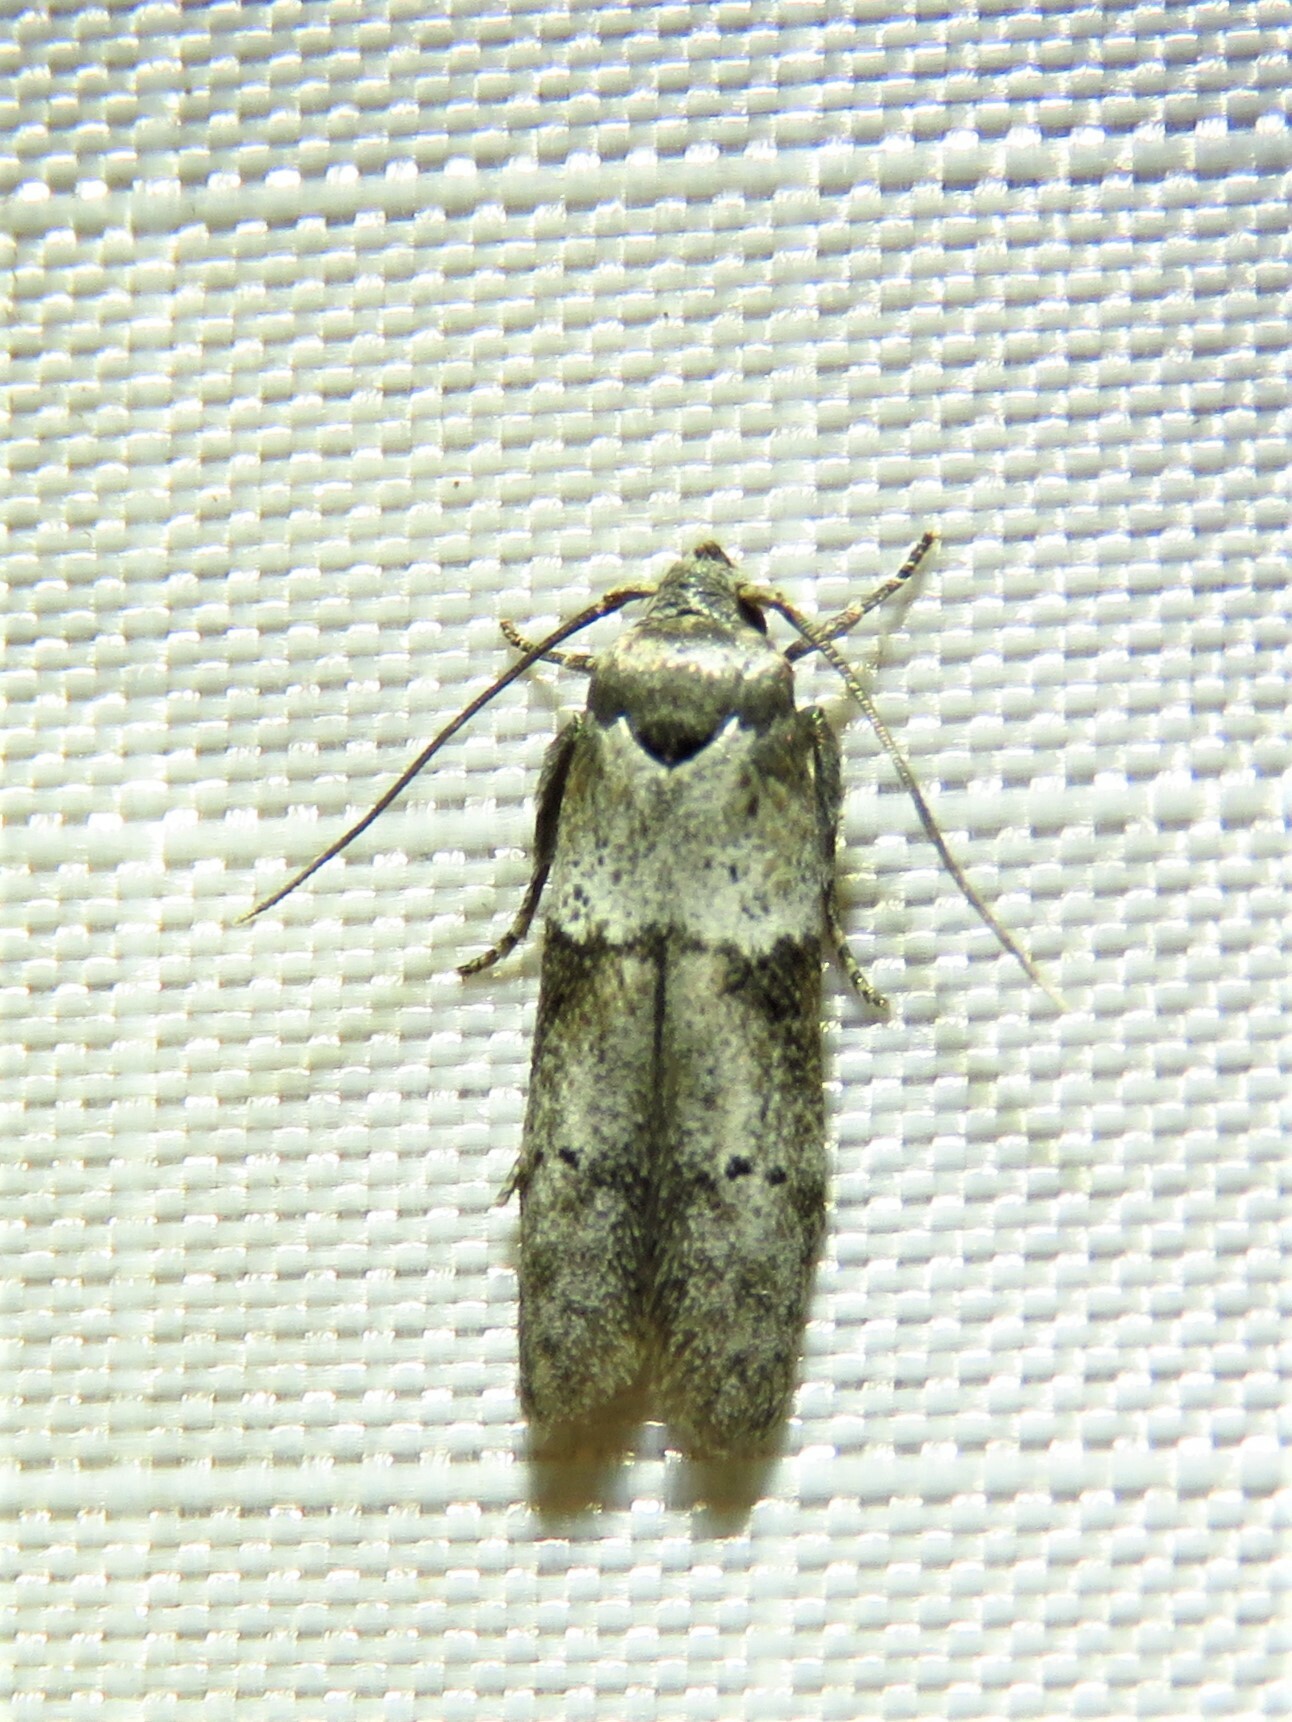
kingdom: Animalia
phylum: Arthropoda
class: Insecta
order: Lepidoptera
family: Blastobasidae
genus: Blastobasis
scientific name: Blastobasis glandulella
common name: Acorn moth
